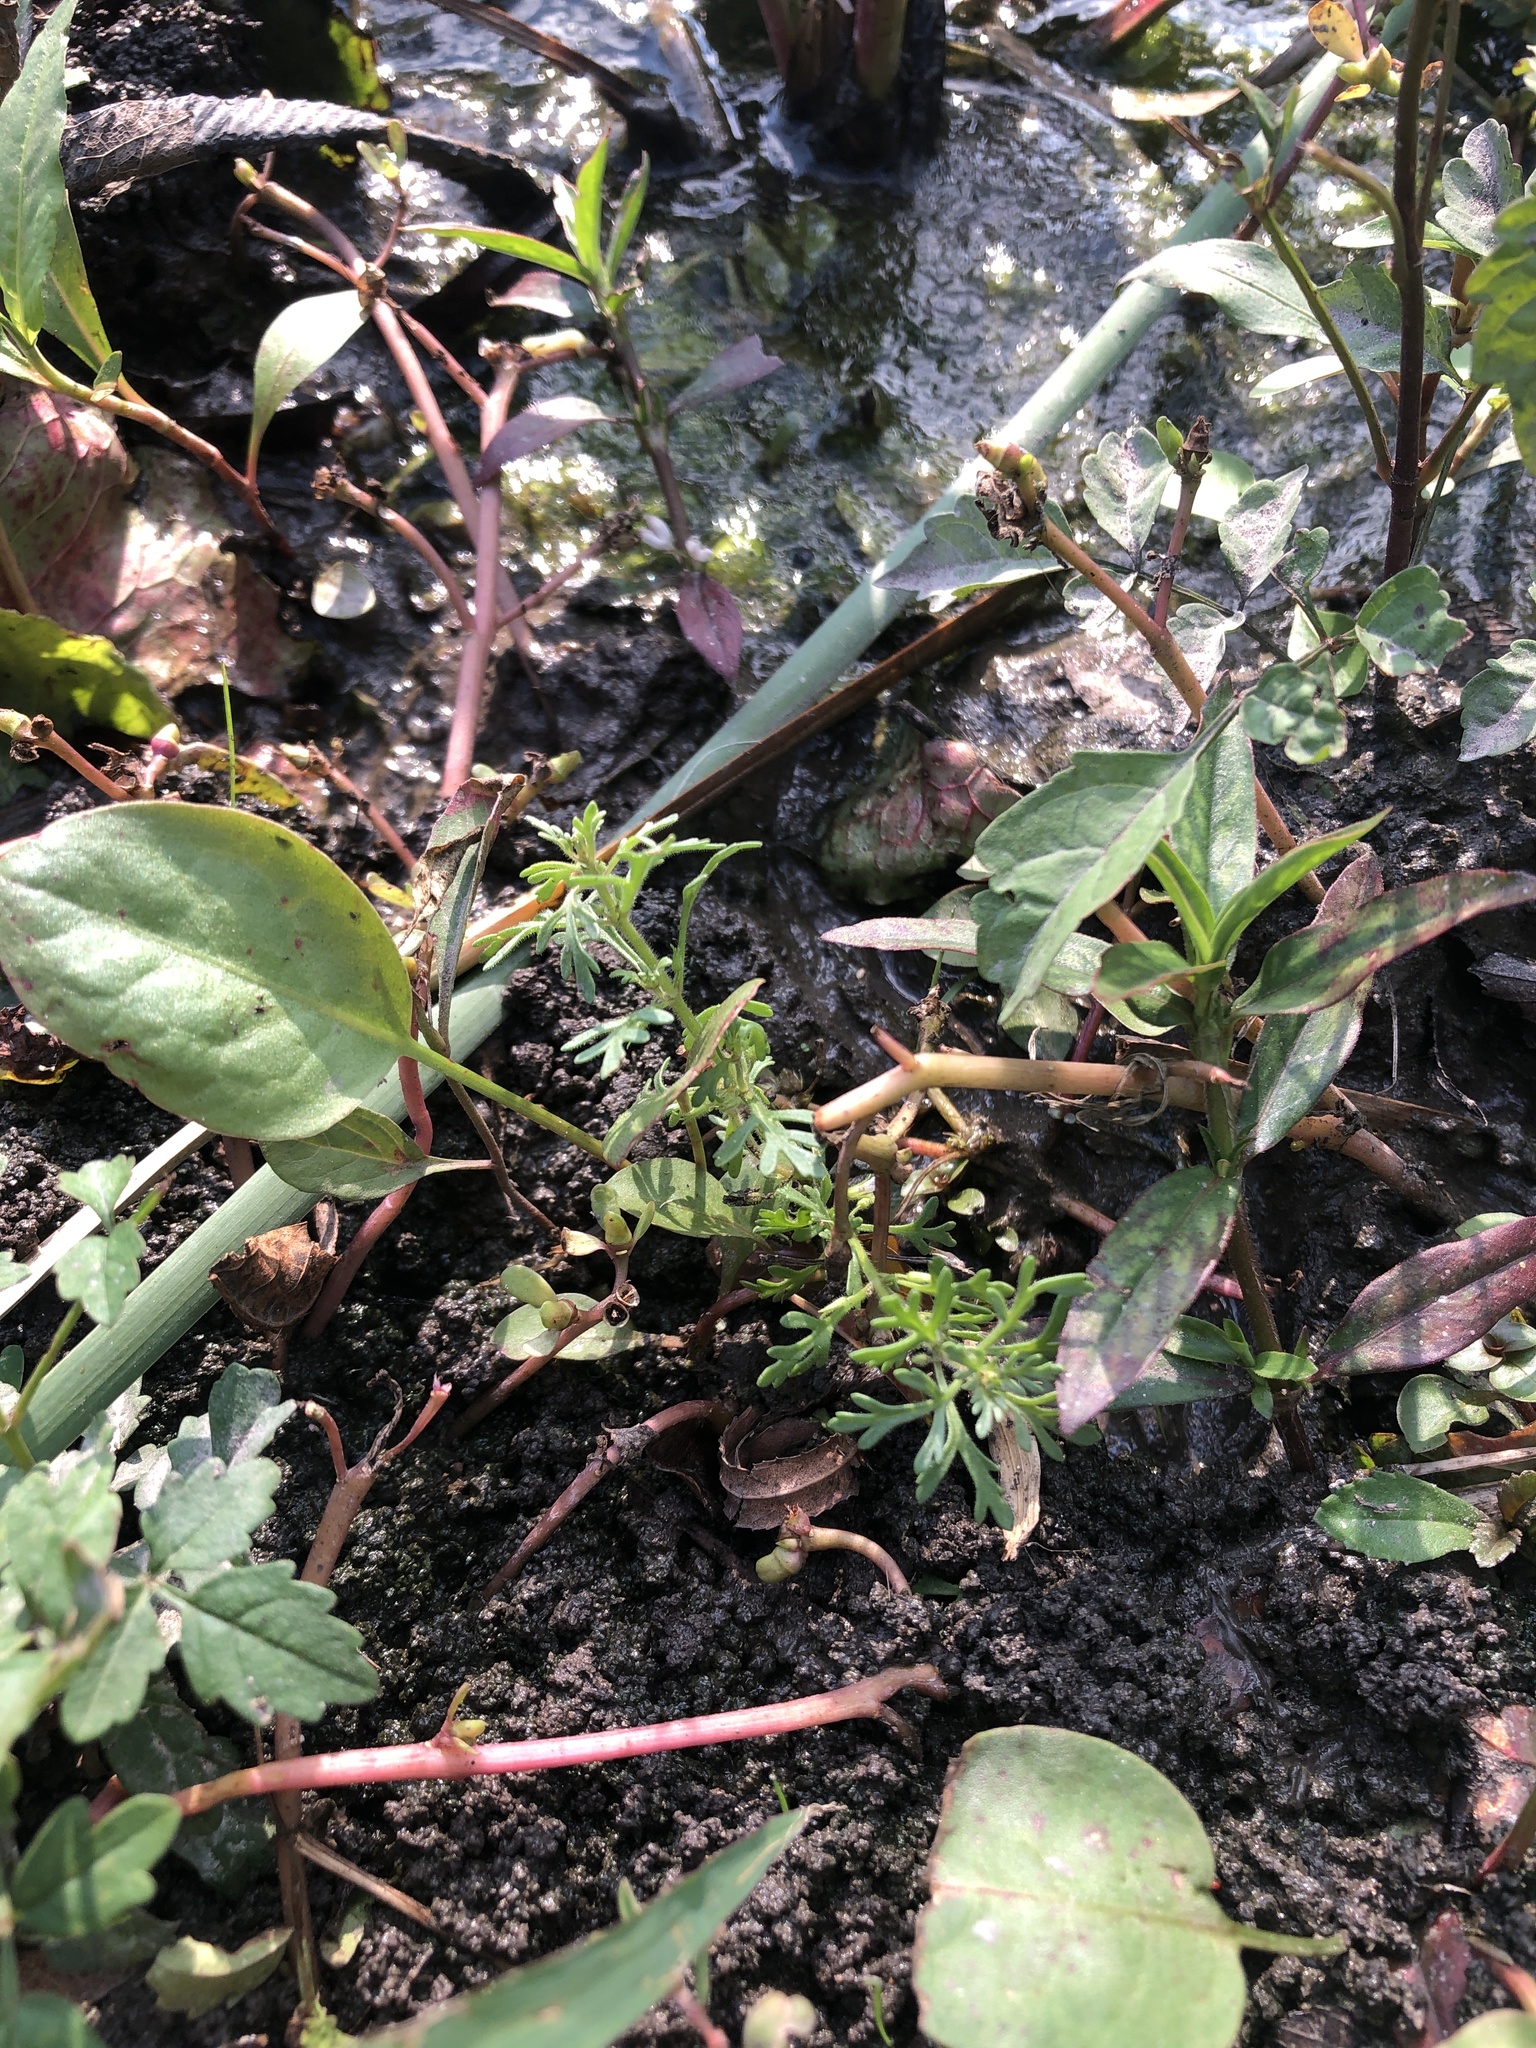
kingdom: Plantae
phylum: Tracheophyta
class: Magnoliopsida
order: Lamiales
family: Plantaginaceae
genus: Leucospora
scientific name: Leucospora multifida
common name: Narrow-leaf paleseed
